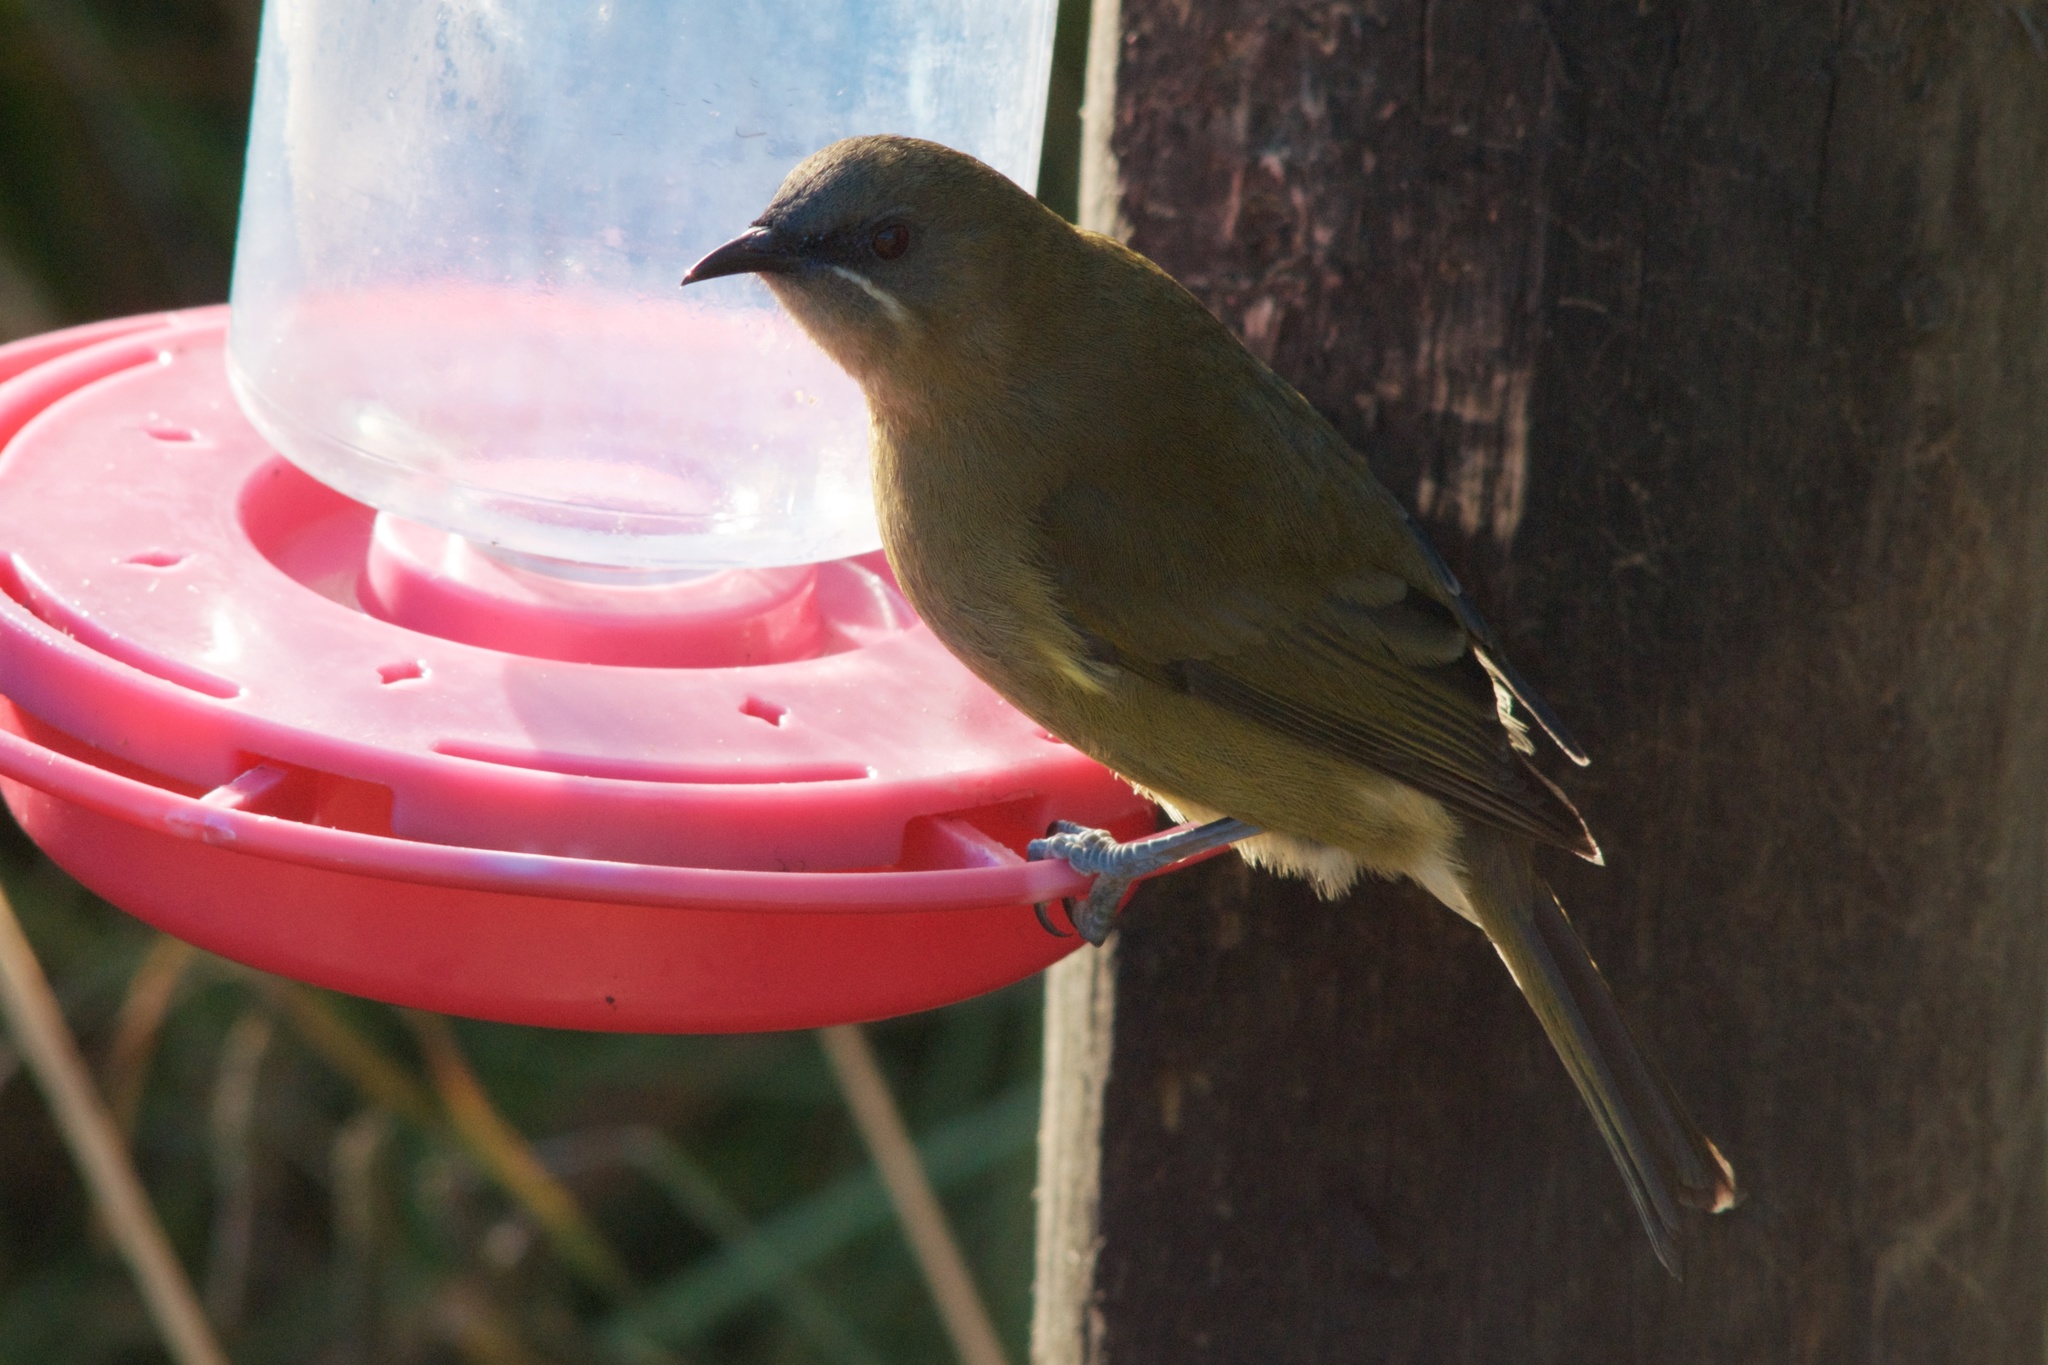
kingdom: Animalia
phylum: Chordata
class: Aves
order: Passeriformes
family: Meliphagidae
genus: Anthornis
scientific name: Anthornis melanura
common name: New zealand bellbird
